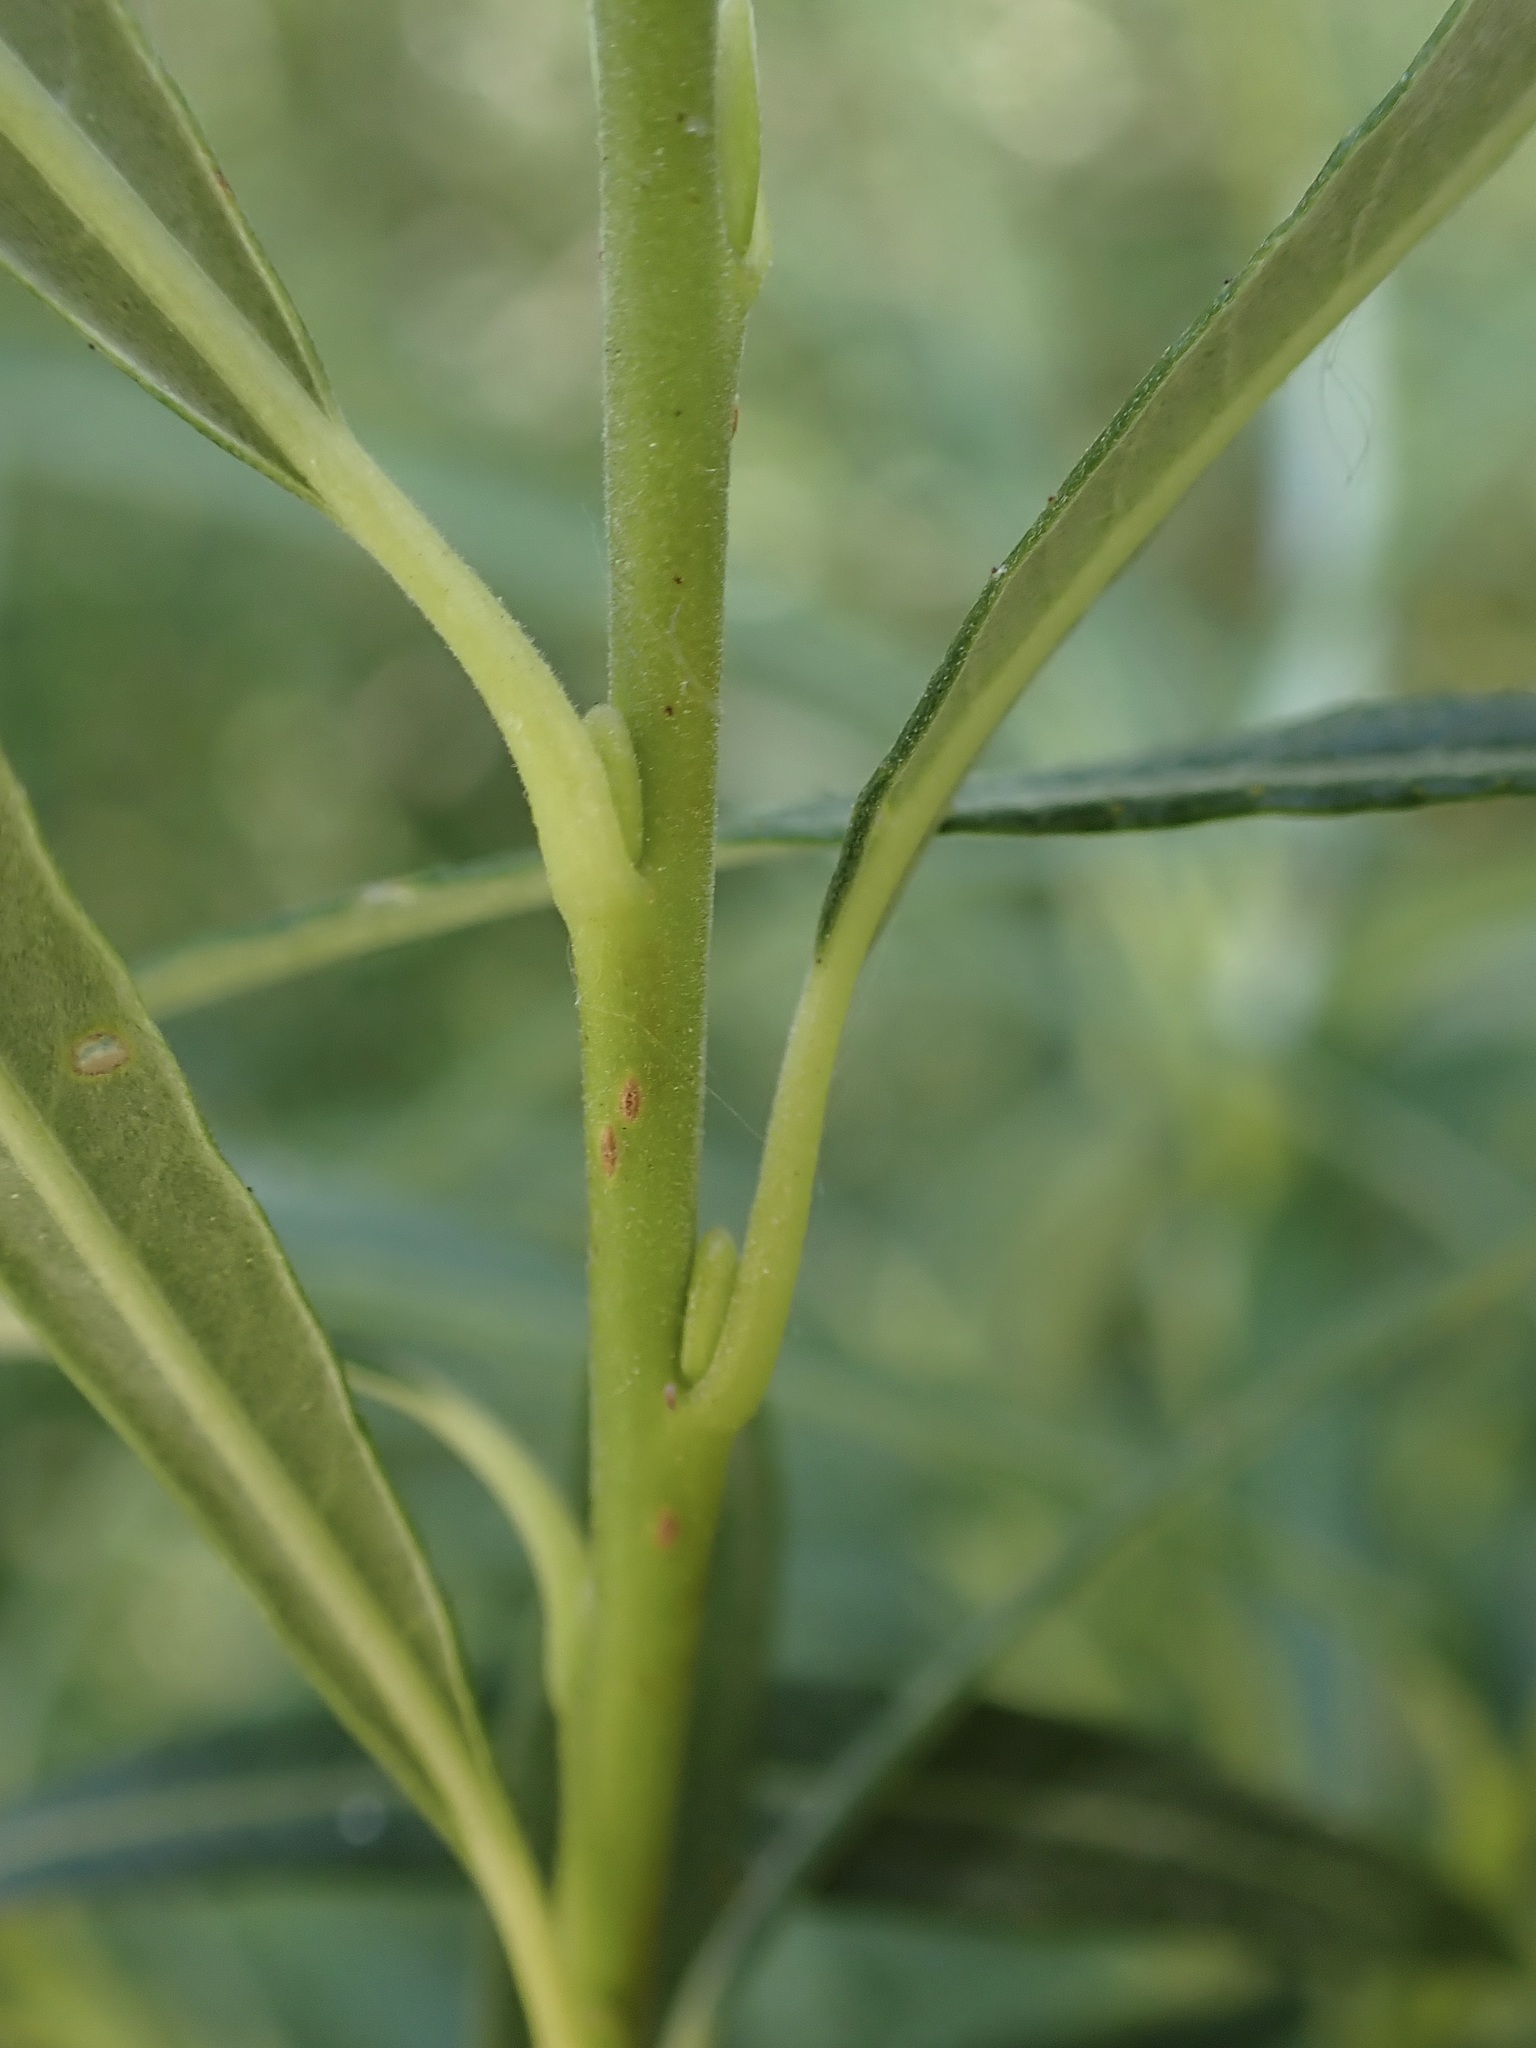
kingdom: Plantae
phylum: Tracheophyta
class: Magnoliopsida
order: Malpighiales
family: Salicaceae
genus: Salix
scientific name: Salix viminalis
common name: Osier
